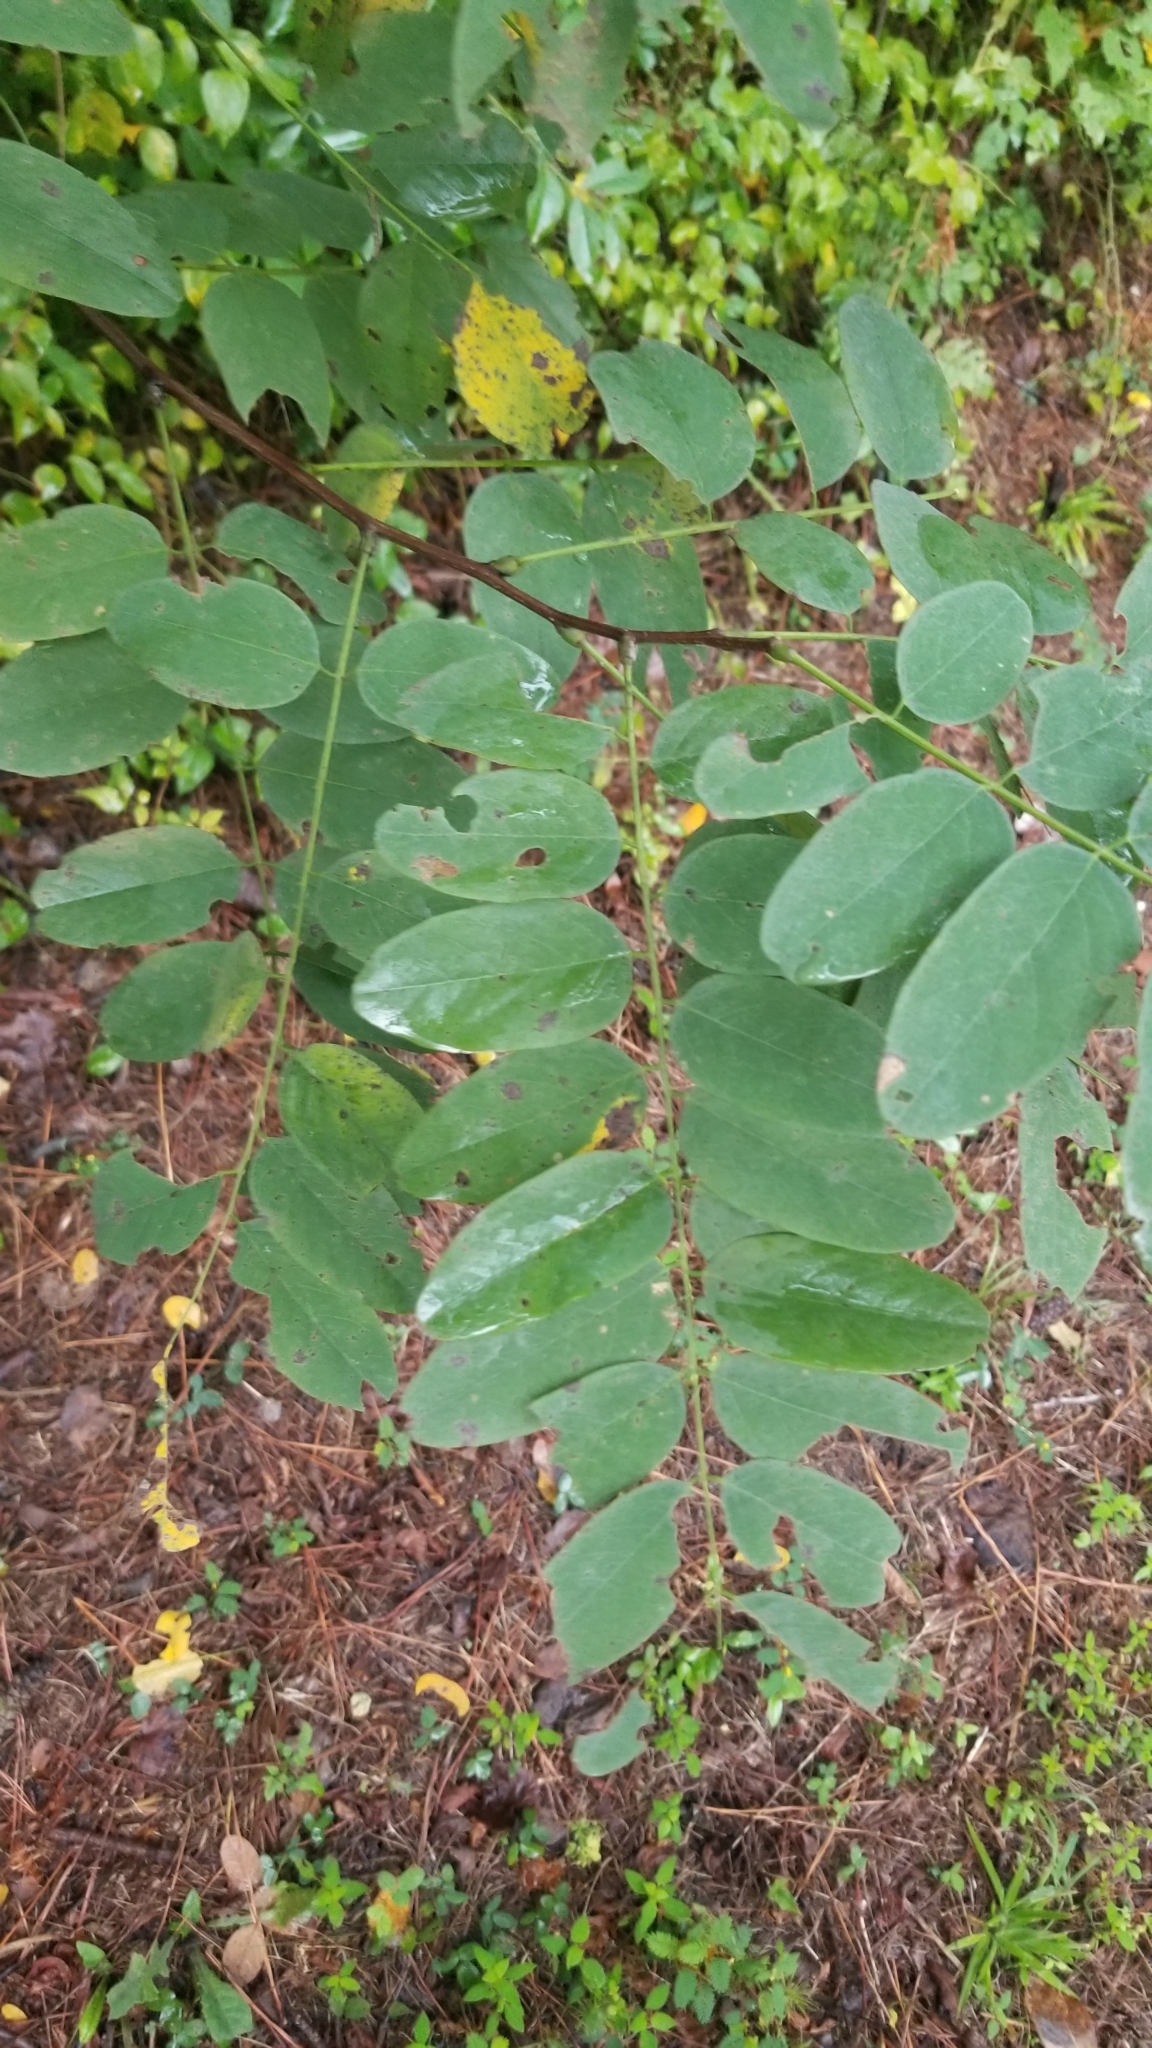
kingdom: Plantae
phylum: Tracheophyta
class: Magnoliopsida
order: Fabales
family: Fabaceae
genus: Robinia
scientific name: Robinia pseudoacacia
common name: Black locust
